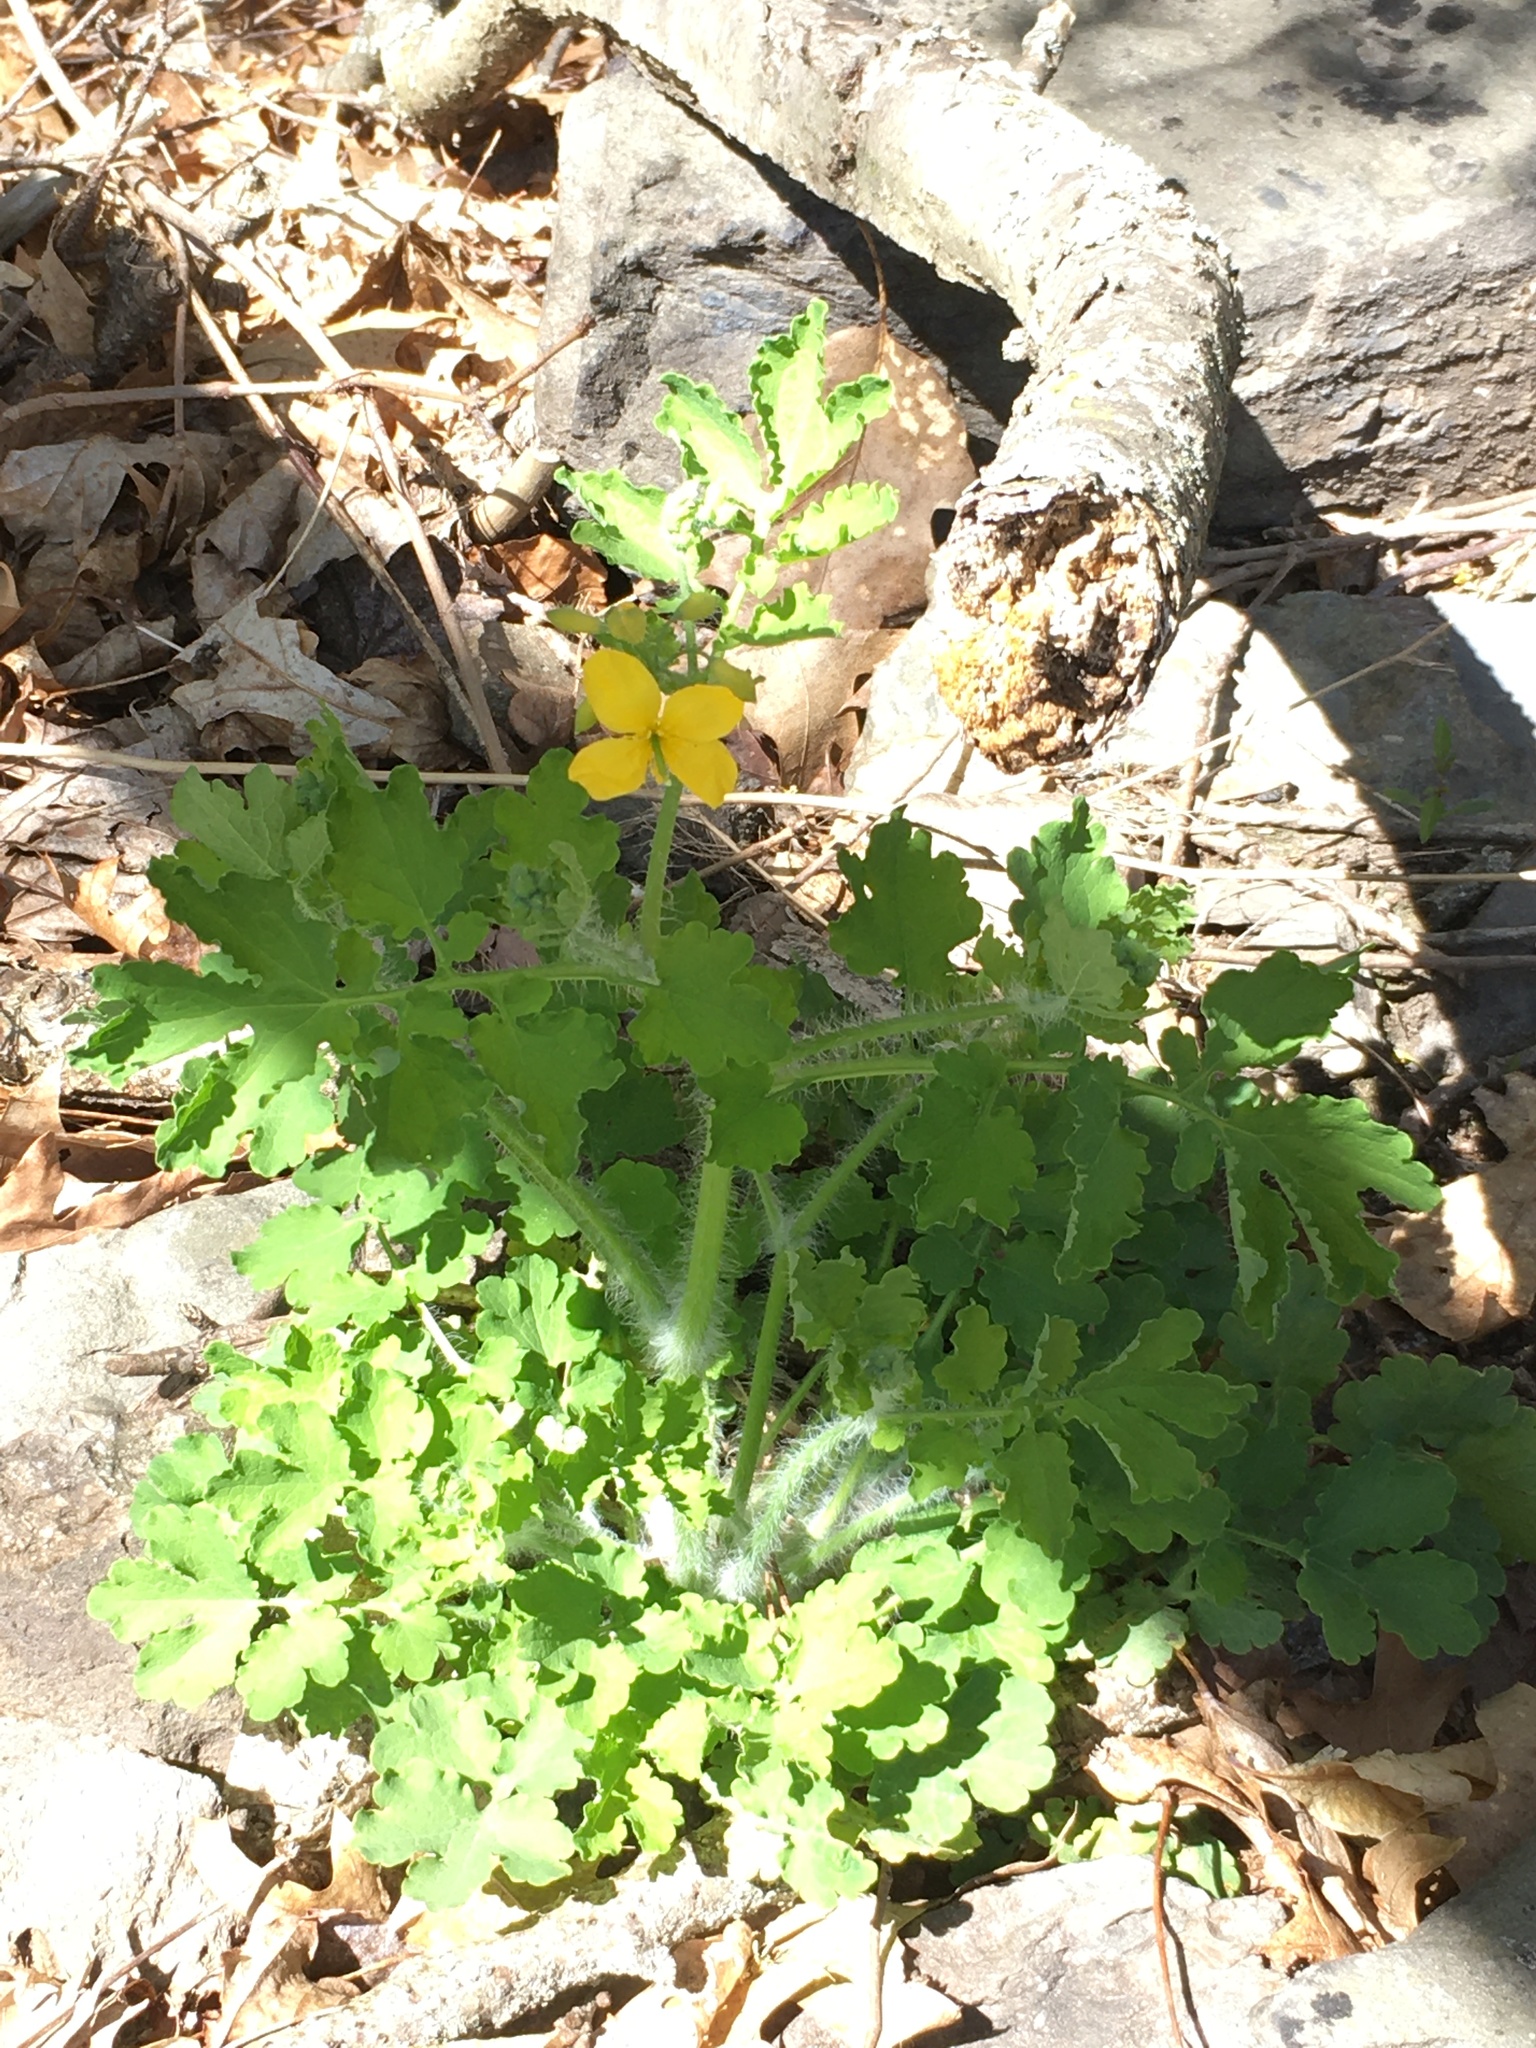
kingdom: Plantae
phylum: Tracheophyta
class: Magnoliopsida
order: Ranunculales
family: Papaveraceae
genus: Chelidonium
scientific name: Chelidonium majus
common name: Greater celandine
